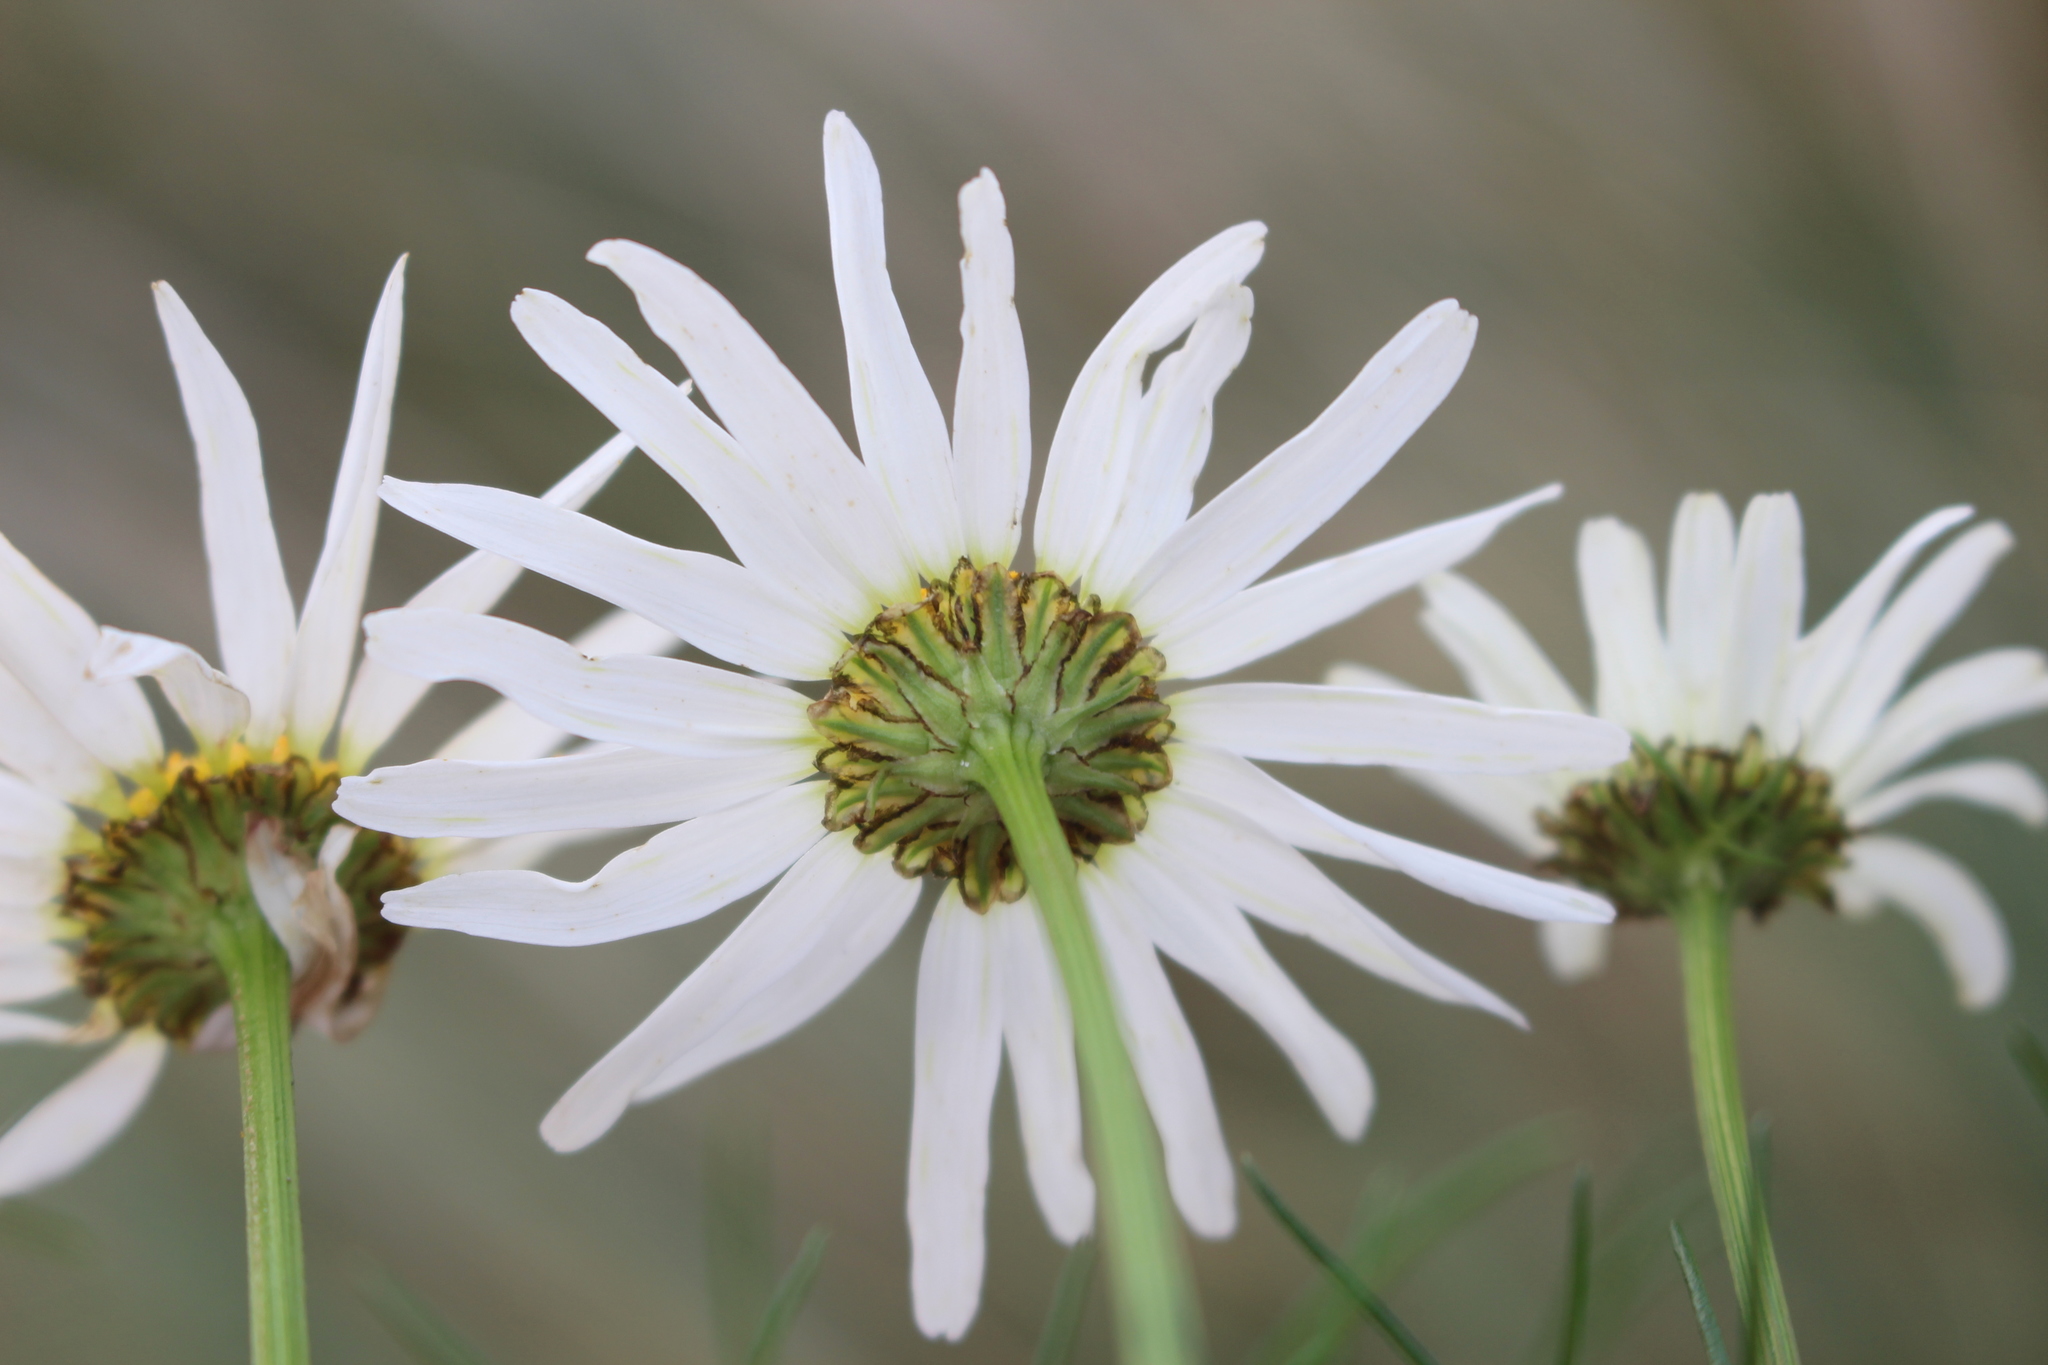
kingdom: Plantae
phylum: Tracheophyta
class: Magnoliopsida
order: Asterales
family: Asteraceae
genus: Tripleurospermum
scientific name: Tripleurospermum inodorum
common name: Scentless mayweed
